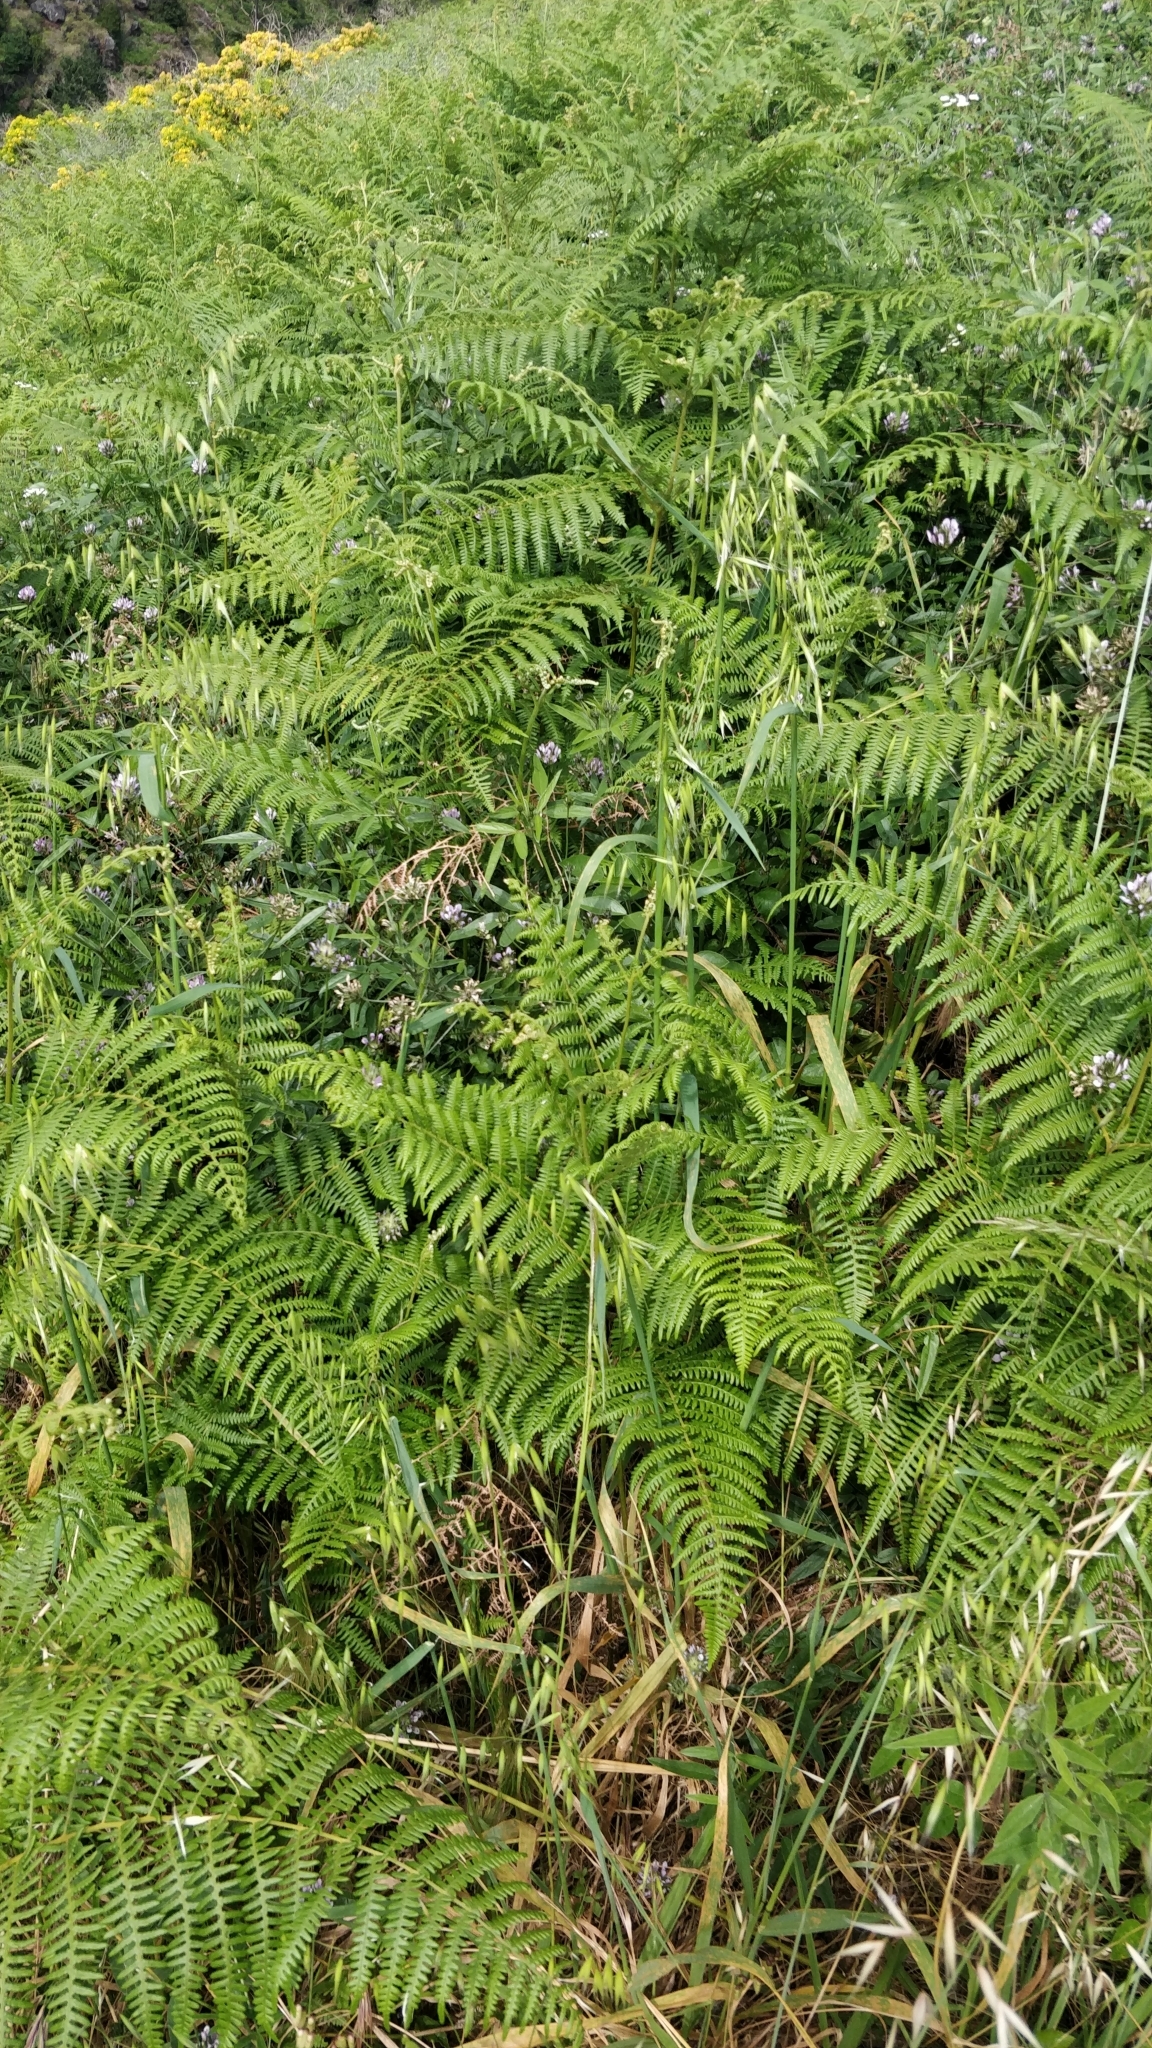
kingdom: Plantae
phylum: Tracheophyta
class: Polypodiopsida
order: Polypodiales
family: Dennstaedtiaceae
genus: Pteridium
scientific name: Pteridium aquilinum
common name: Bracken
